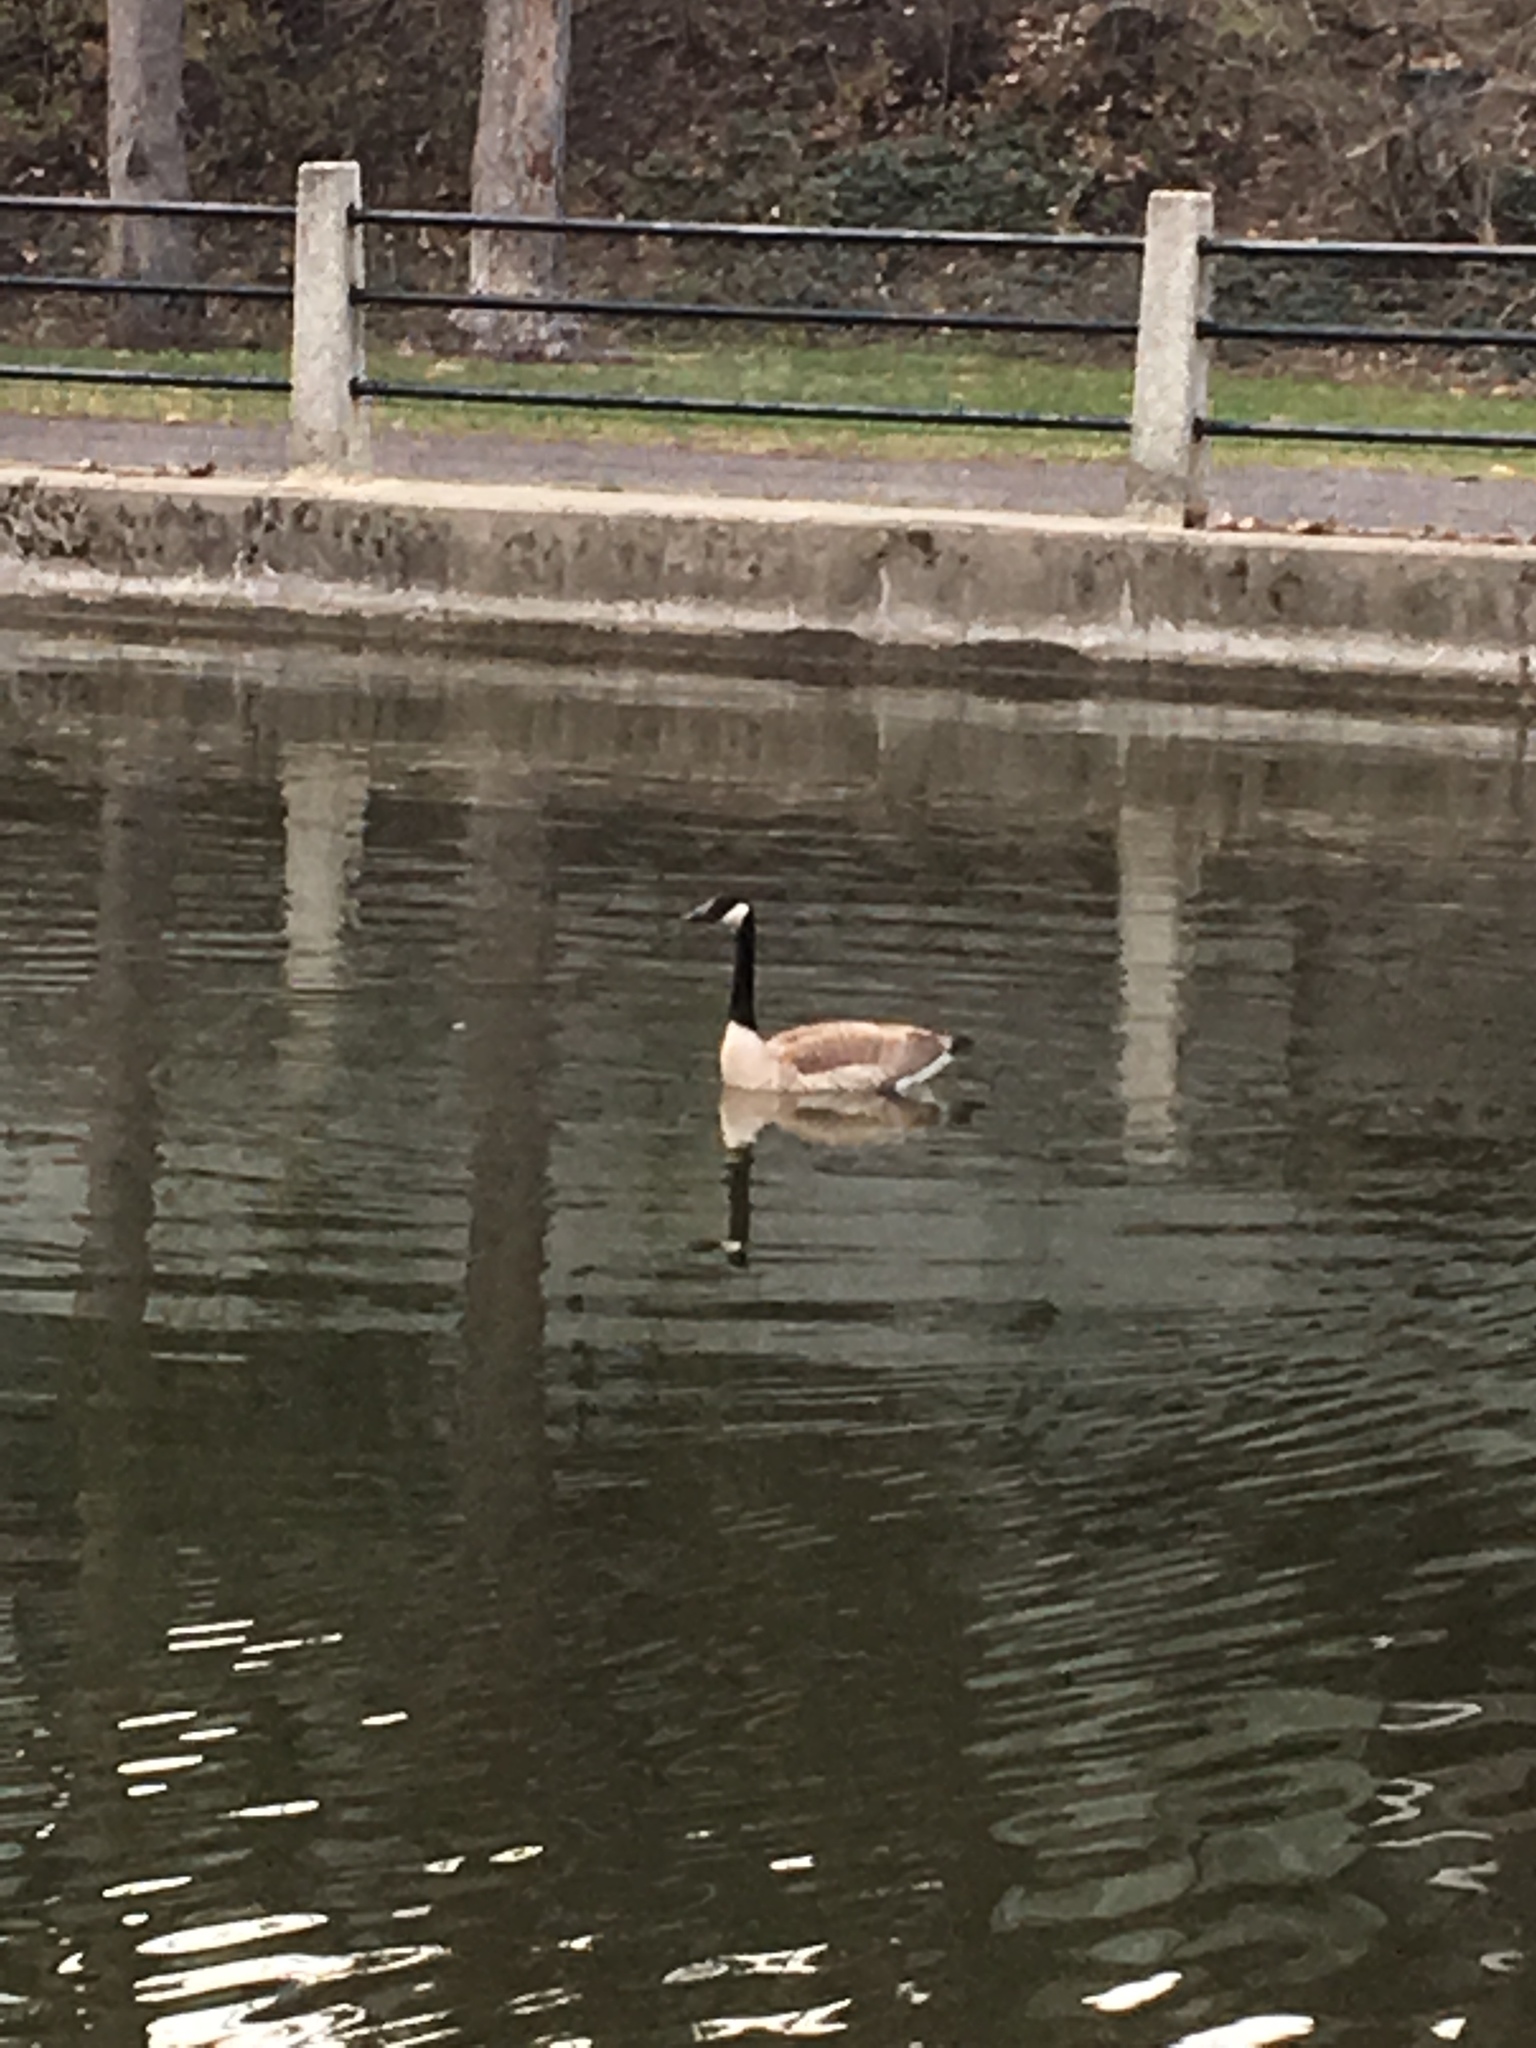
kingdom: Animalia
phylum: Chordata
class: Aves
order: Anseriformes
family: Anatidae
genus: Branta
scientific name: Branta canadensis
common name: Canada goose
